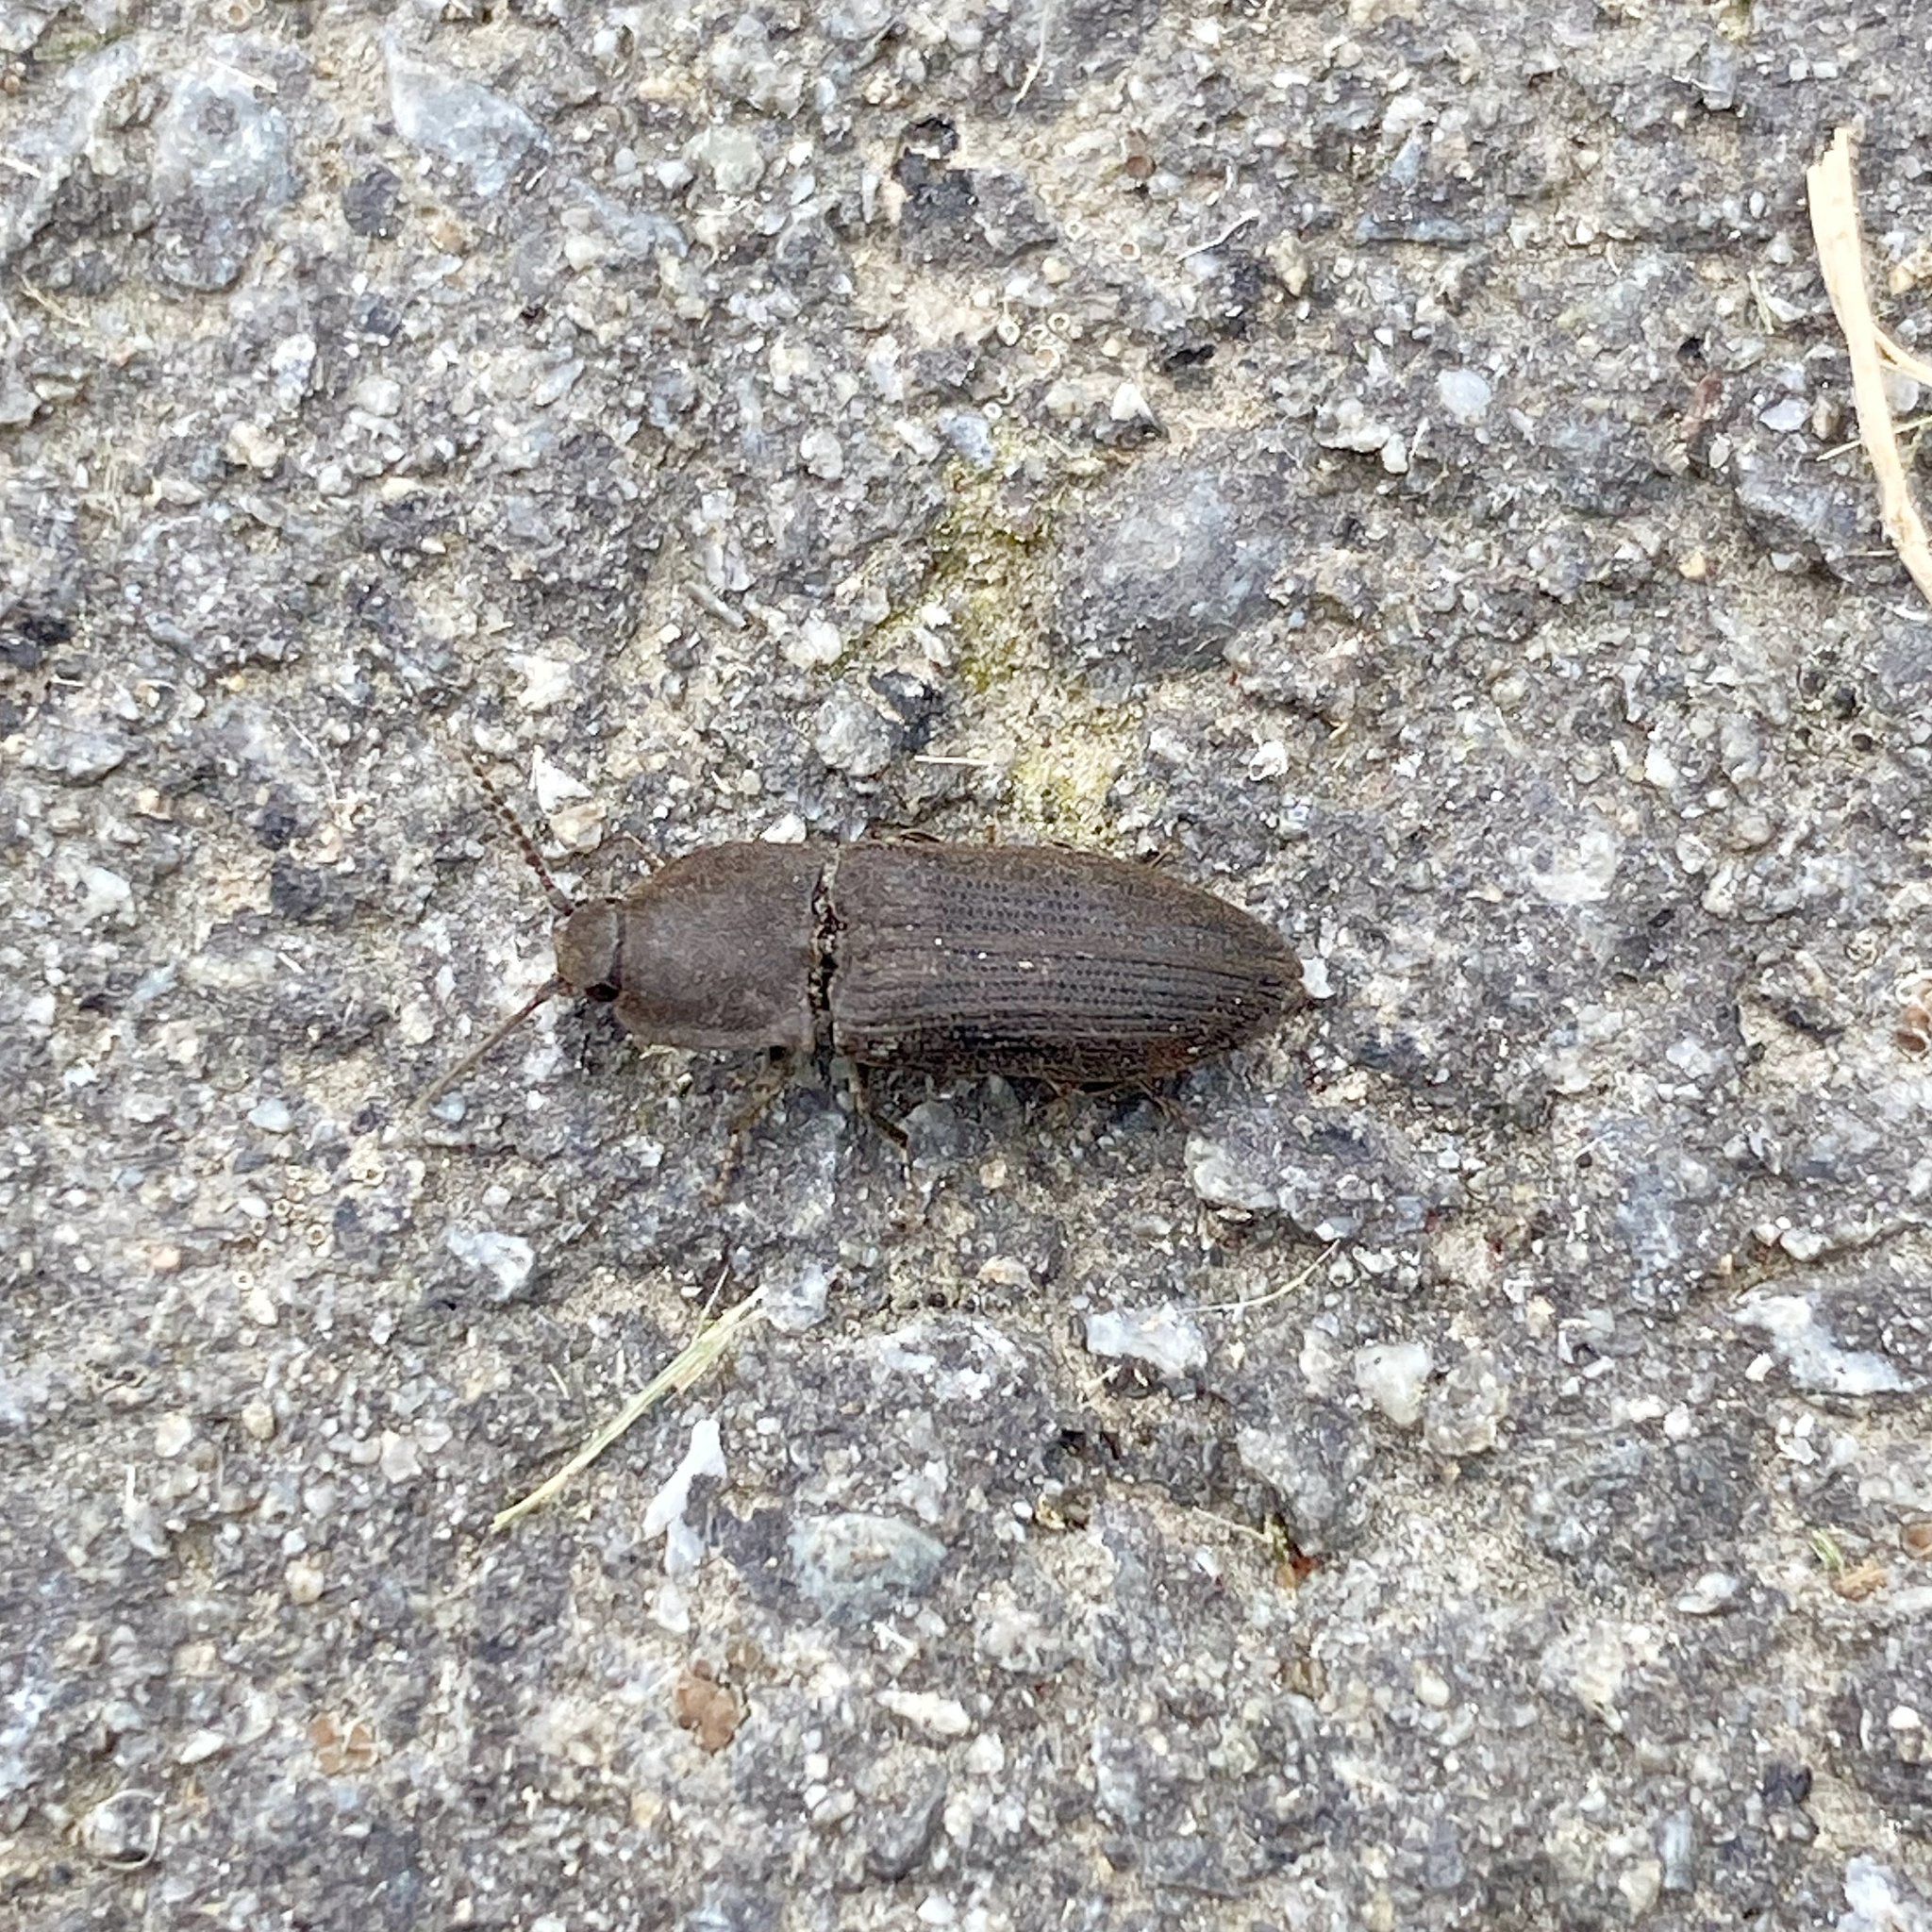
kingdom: Animalia
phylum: Arthropoda
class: Insecta
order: Coleoptera
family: Elateridae
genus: Agrypnus
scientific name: Agrypnus
